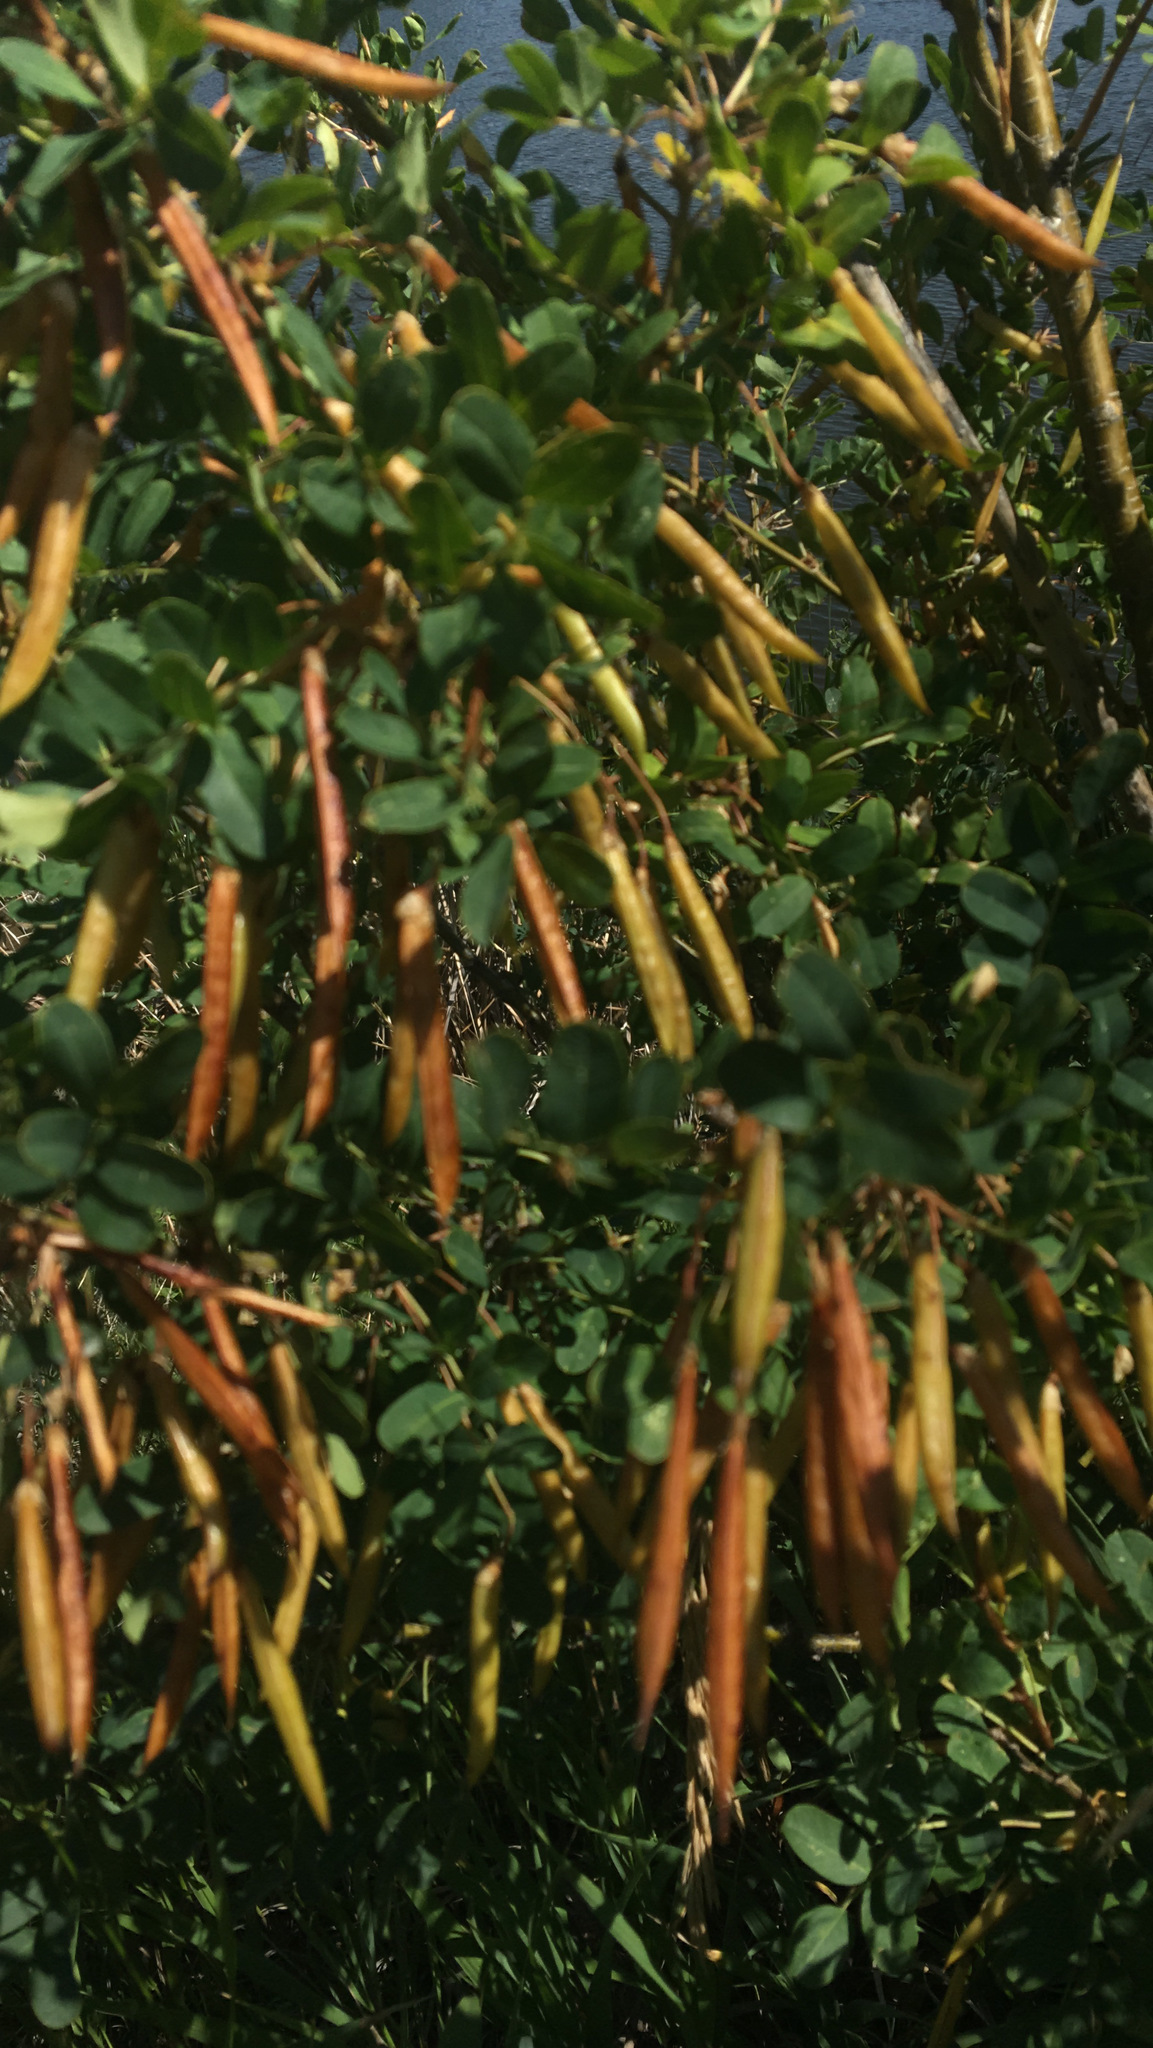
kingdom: Plantae
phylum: Tracheophyta
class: Magnoliopsida
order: Fabales
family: Fabaceae
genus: Caragana
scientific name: Caragana arborescens
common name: Siberian peashrub
